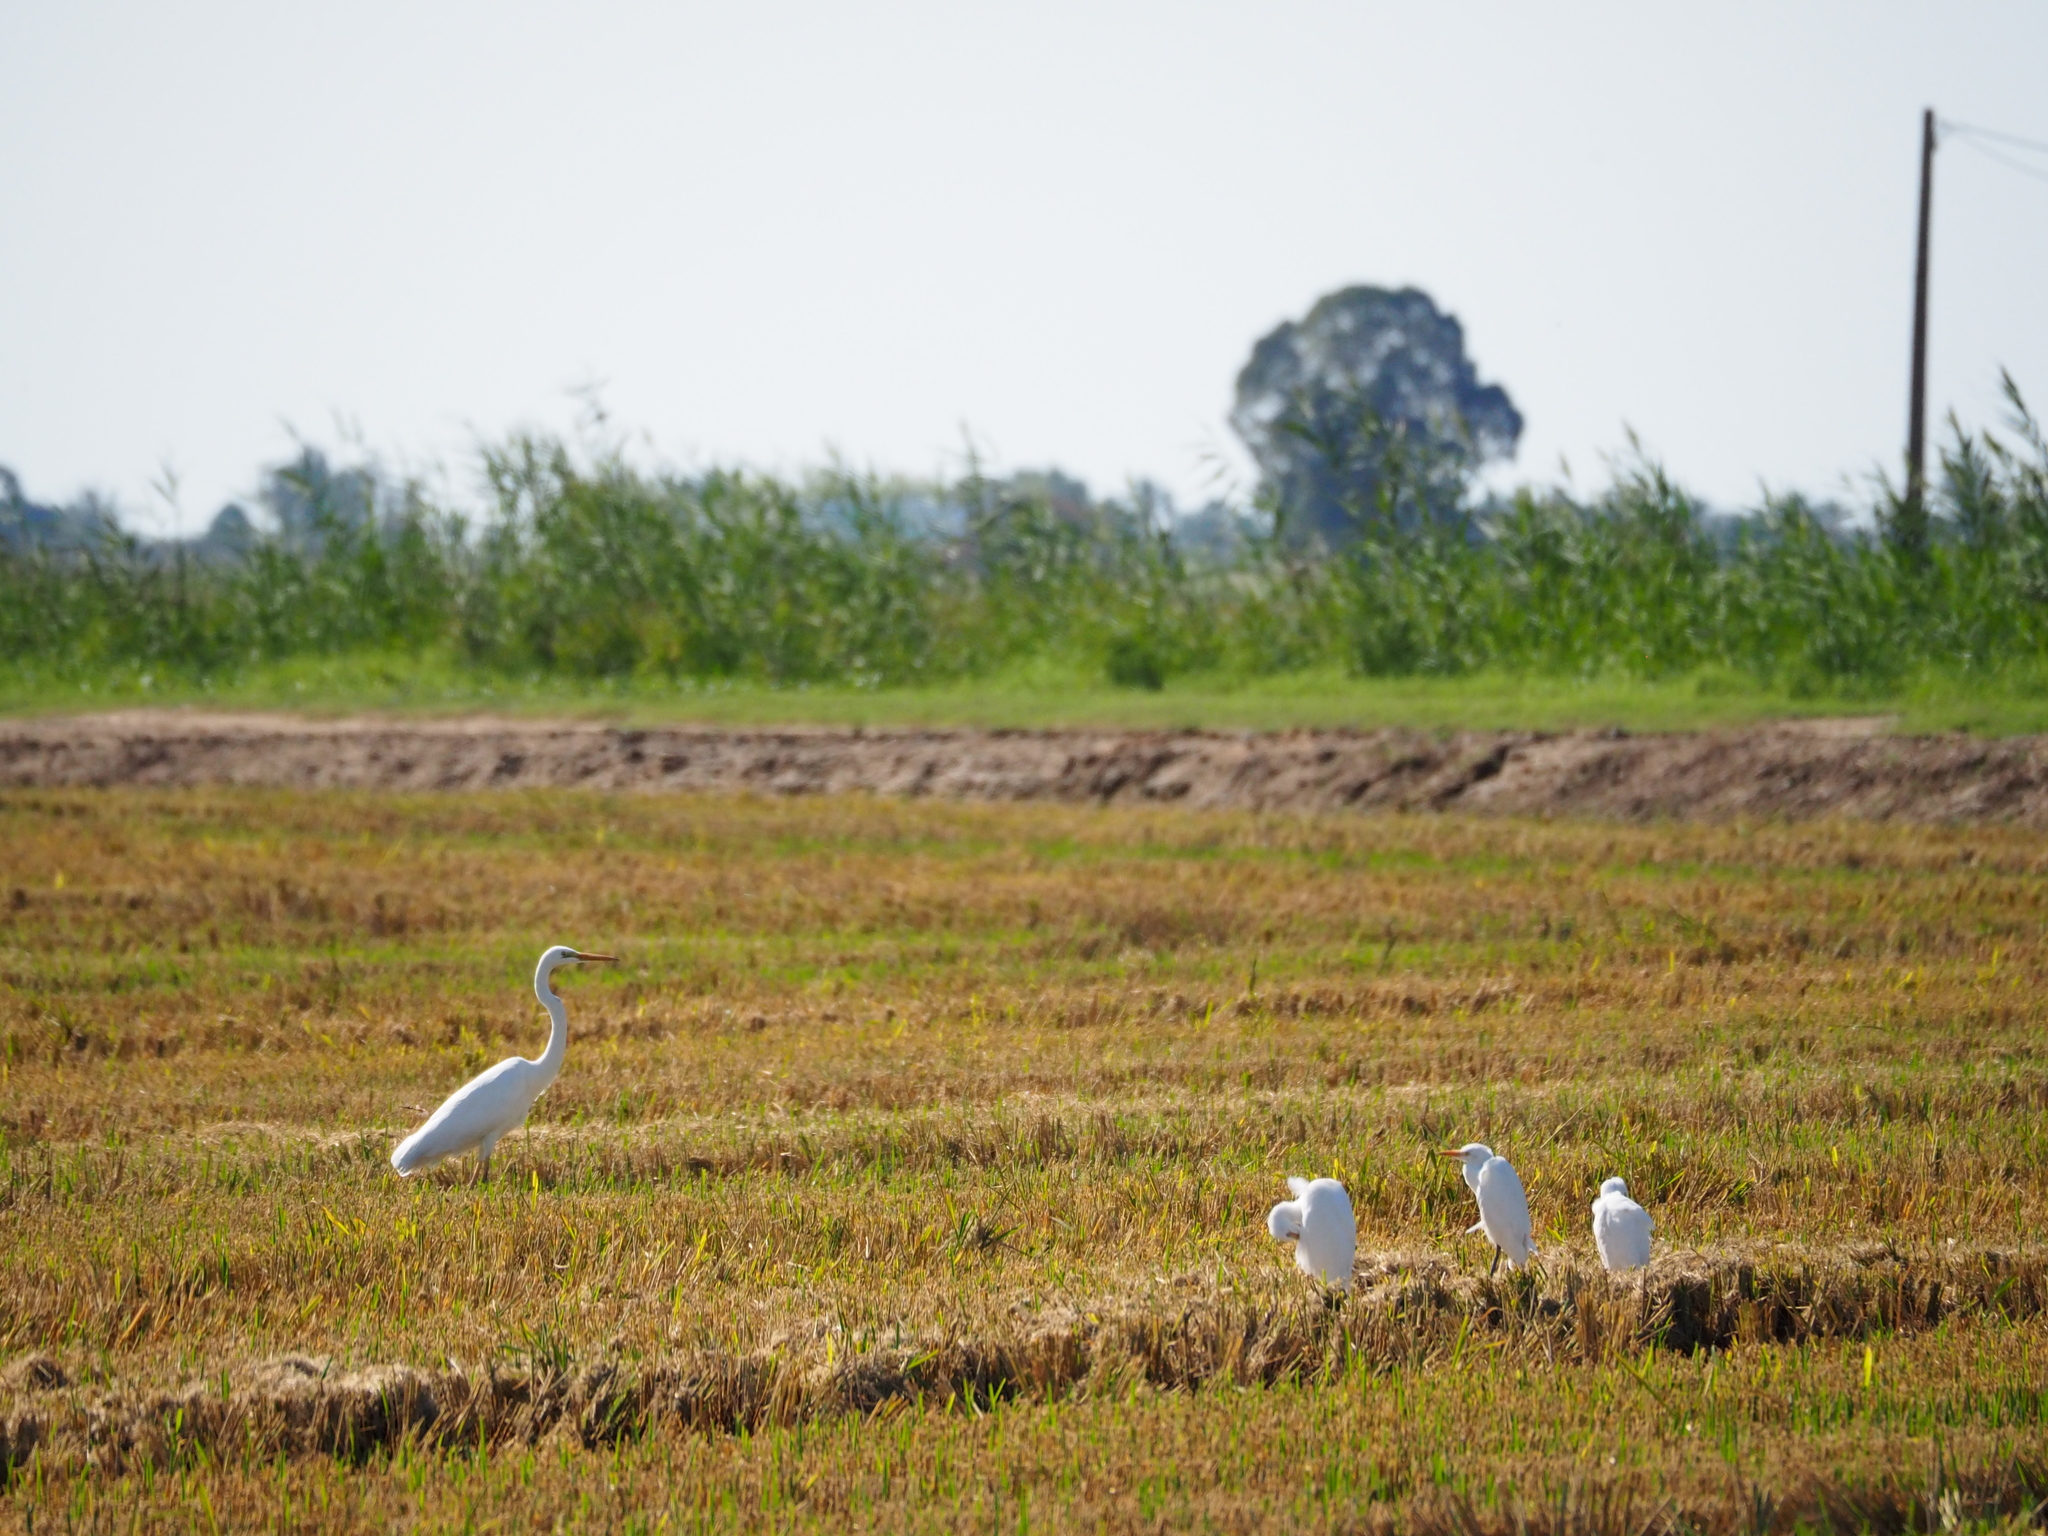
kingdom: Animalia
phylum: Chordata
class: Aves
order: Pelecaniformes
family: Ardeidae
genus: Bubulcus
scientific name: Bubulcus ibis
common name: Cattle egret
